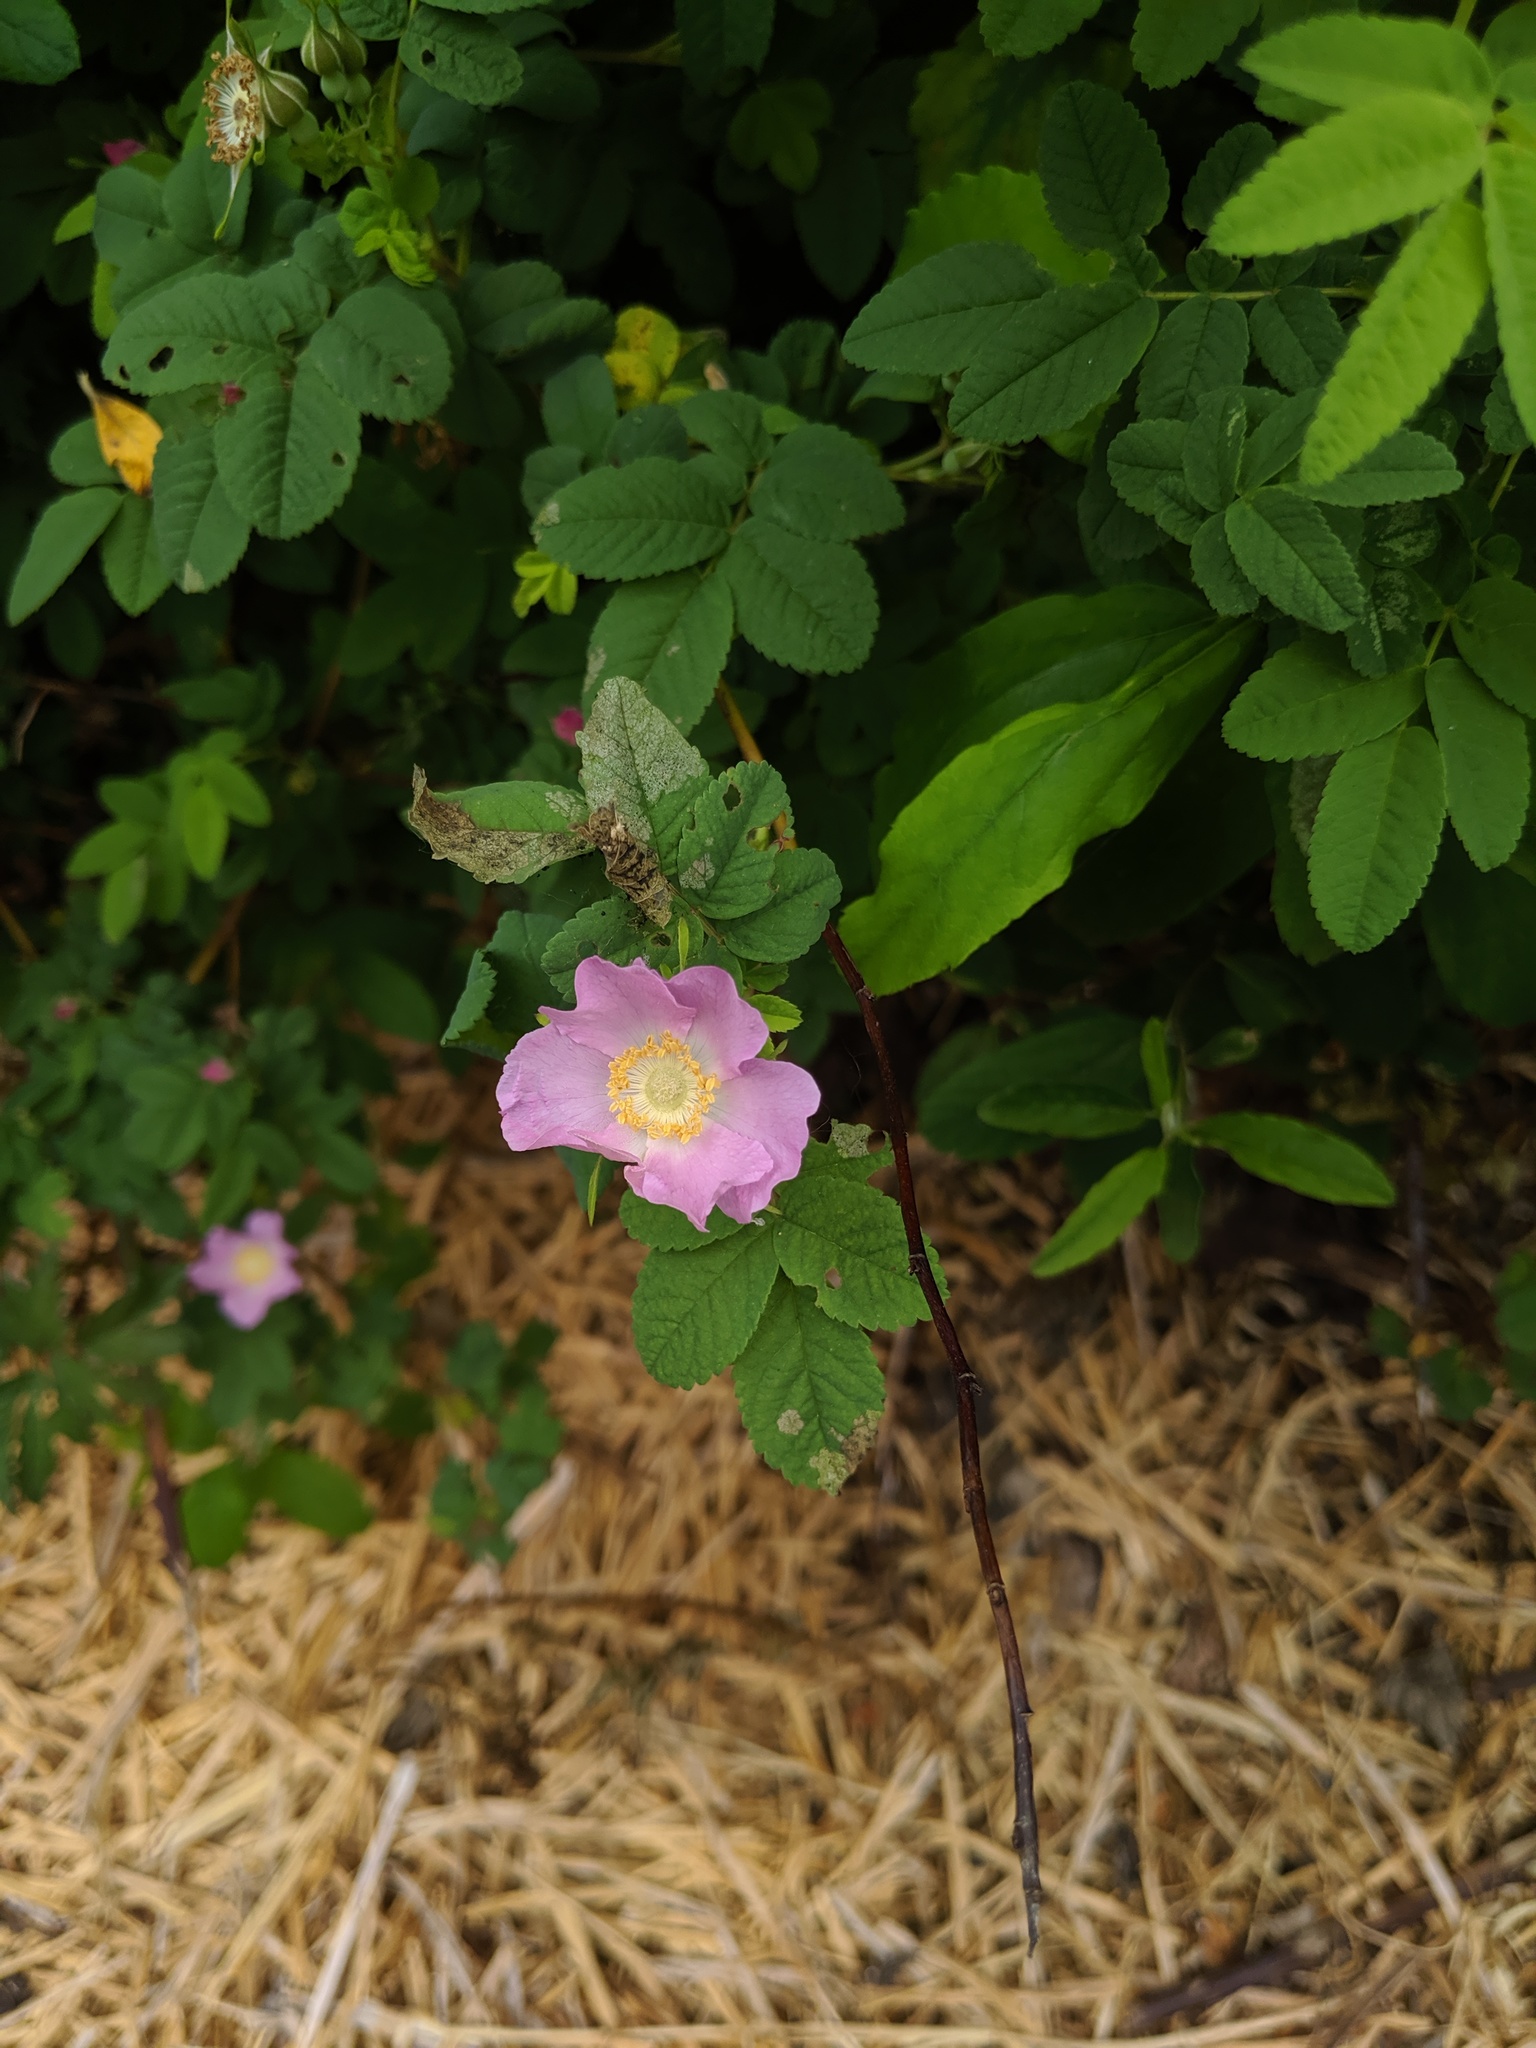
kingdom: Plantae
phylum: Tracheophyta
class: Magnoliopsida
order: Rosales
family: Rosaceae
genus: Rosa
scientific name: Rosa nutkana
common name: Nootka rose
